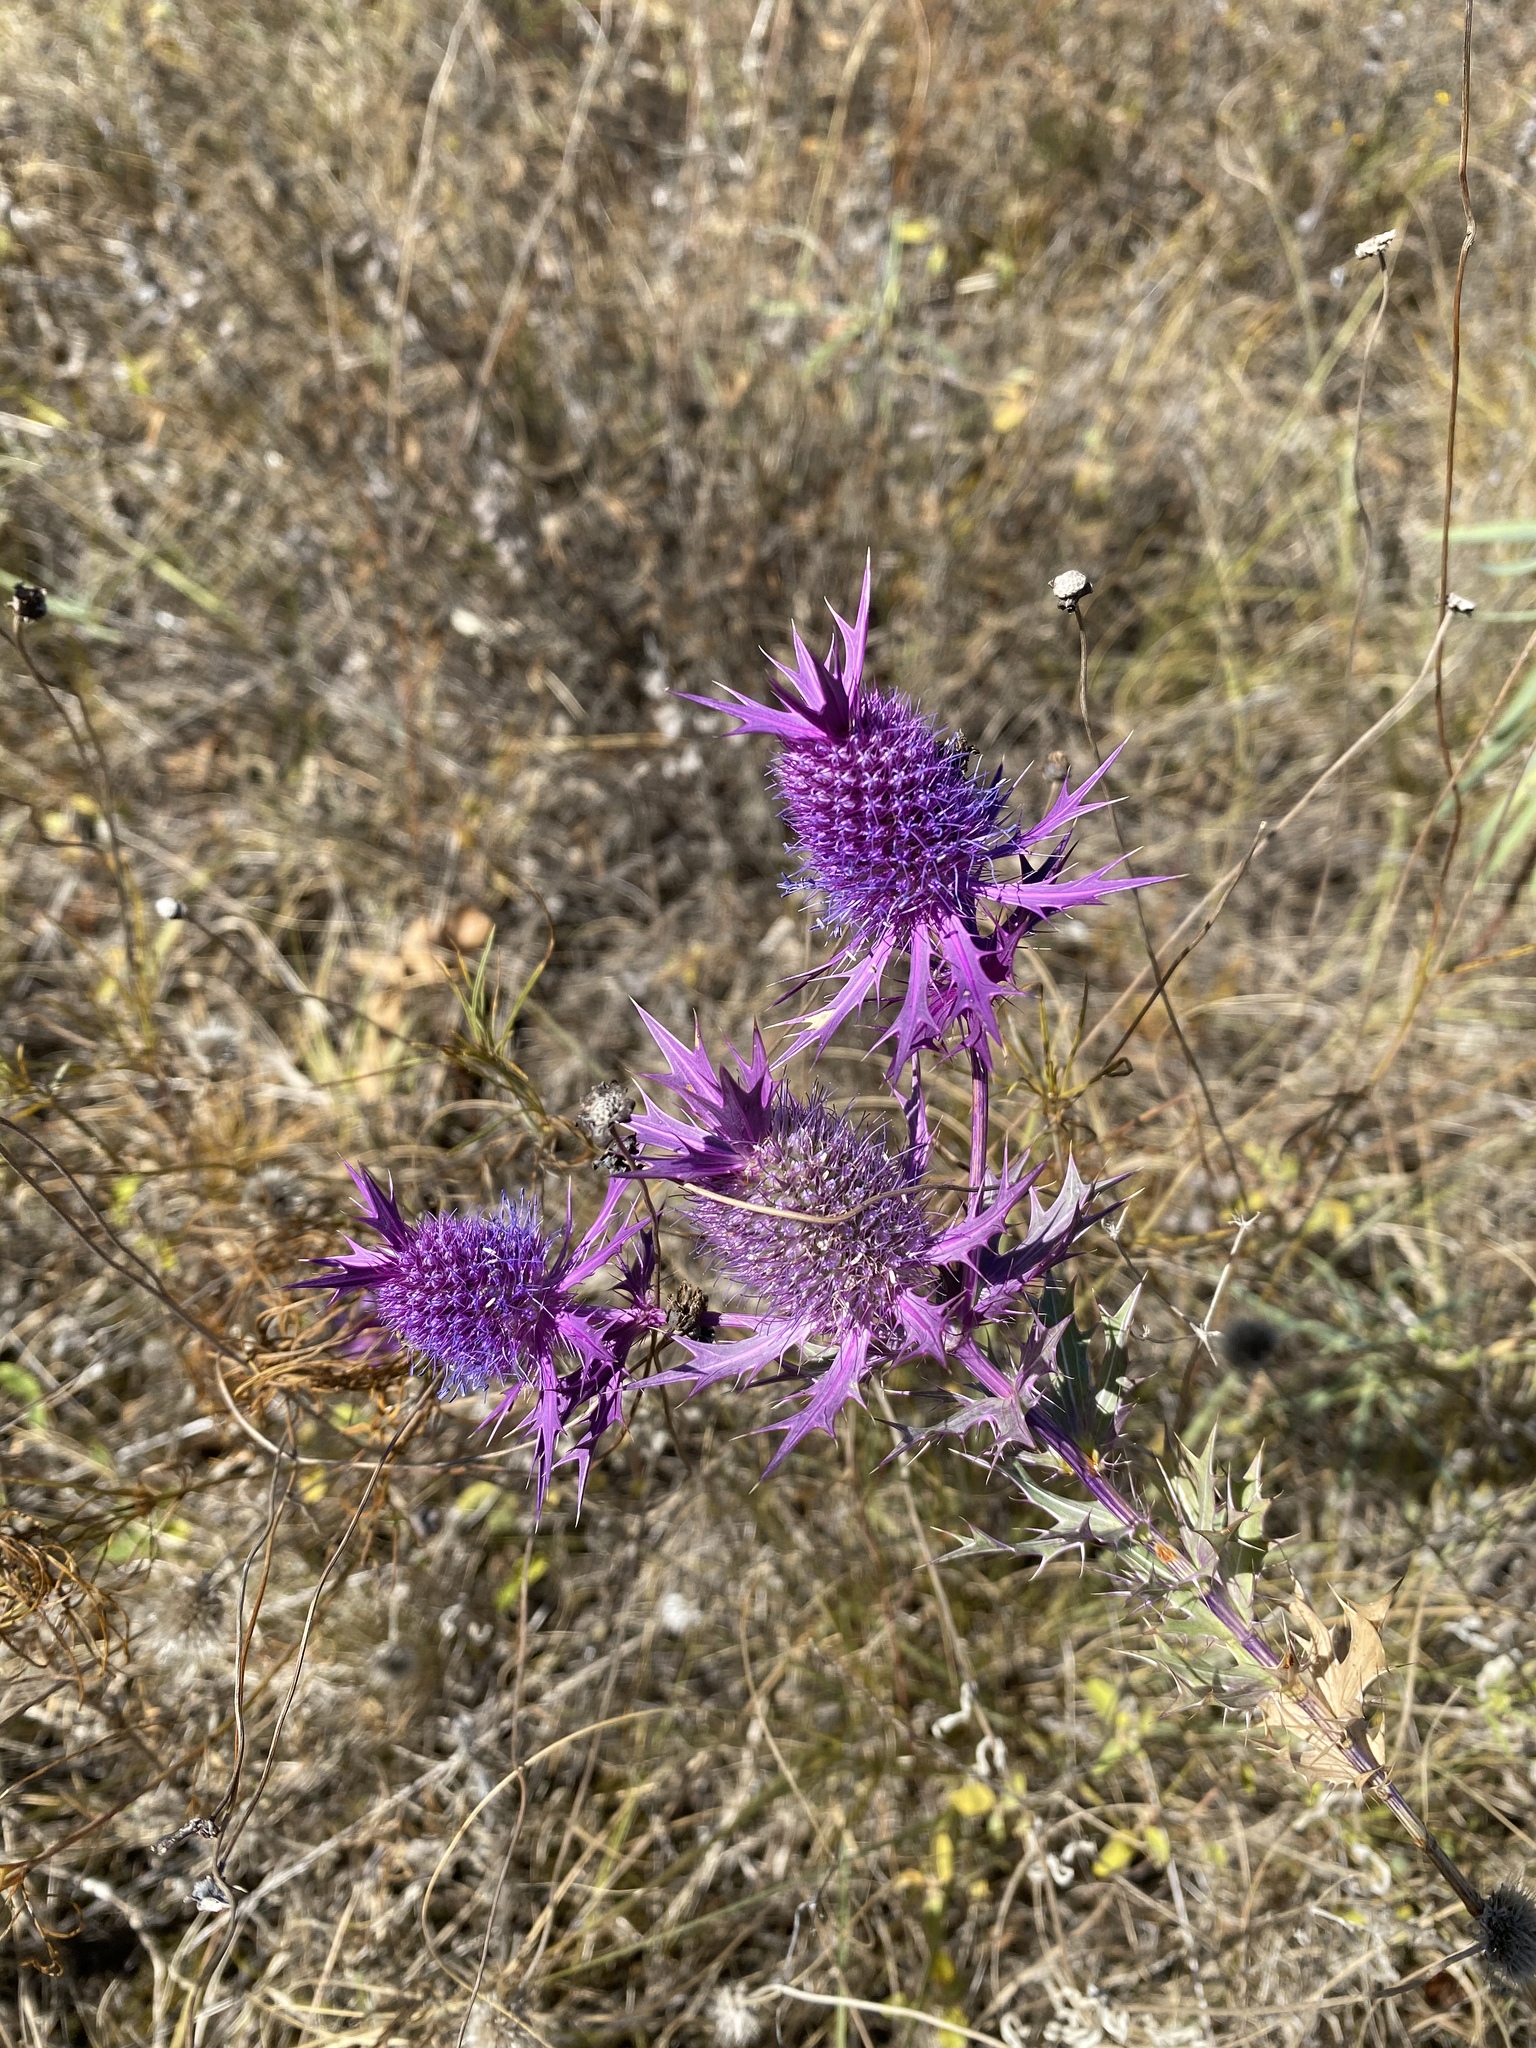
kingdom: Plantae
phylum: Tracheophyta
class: Magnoliopsida
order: Apiales
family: Apiaceae
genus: Eryngium
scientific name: Eryngium leavenworthii
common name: Leavenworth's eryngo
